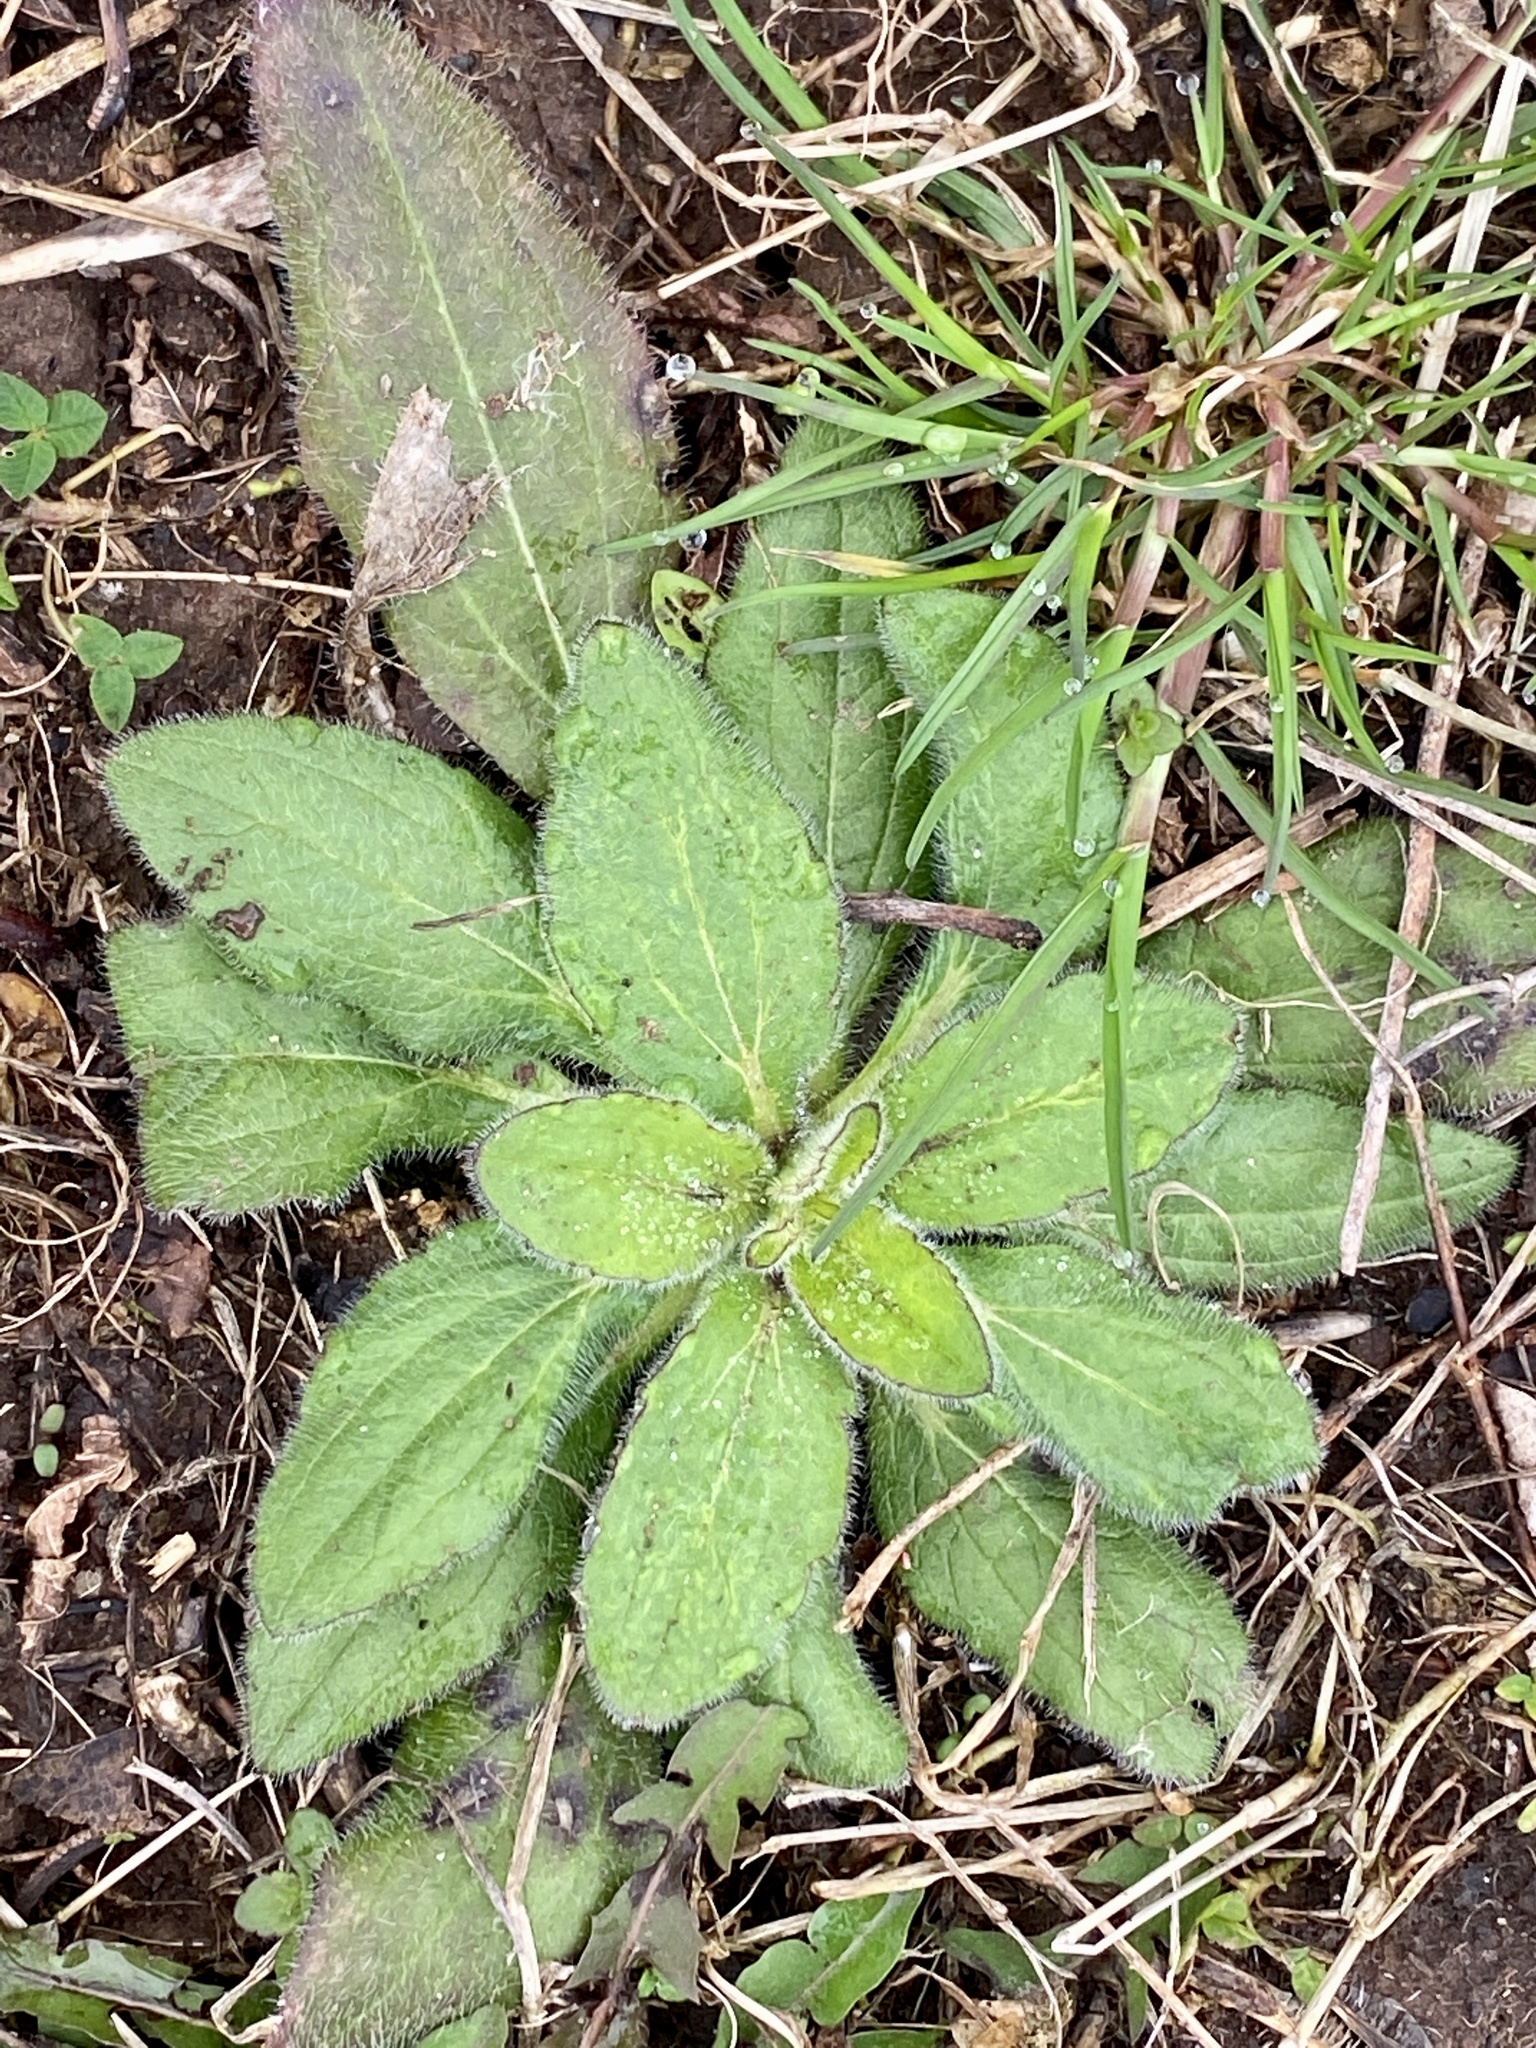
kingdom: Plantae
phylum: Tracheophyta
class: Magnoliopsida
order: Asterales
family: Asteraceae
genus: Rudbeckia
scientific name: Rudbeckia hirta
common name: Black-eyed-susan
